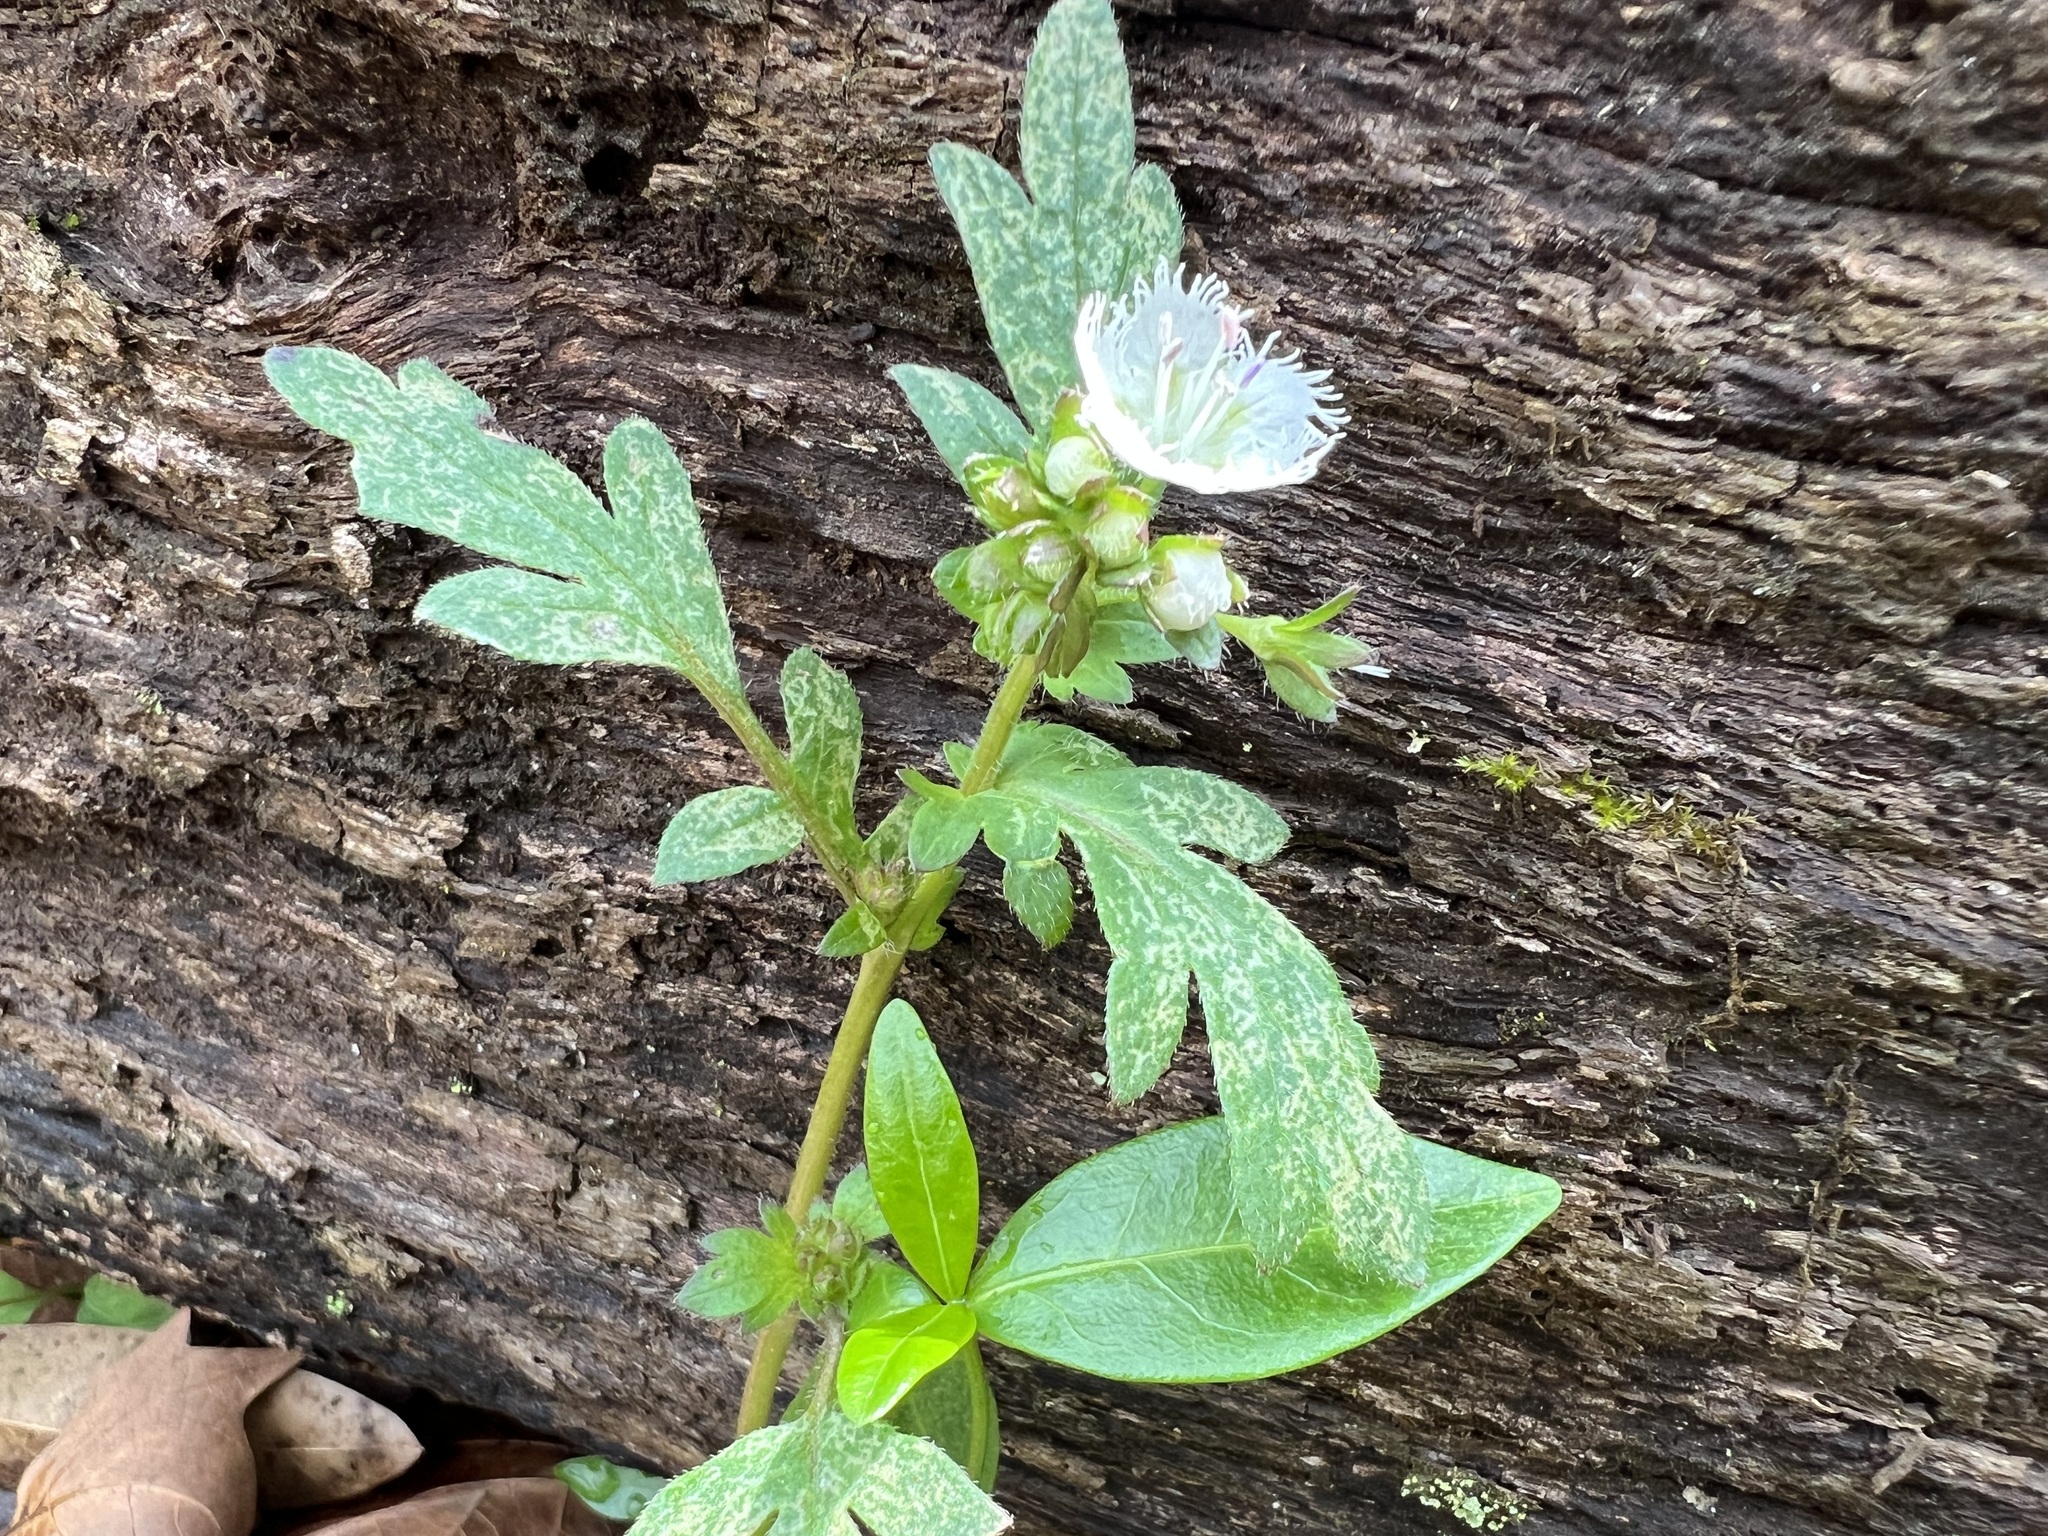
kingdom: Plantae
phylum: Tracheophyta
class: Magnoliopsida
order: Boraginales
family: Hydrophyllaceae
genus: Phacelia
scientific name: Phacelia fimbriata
